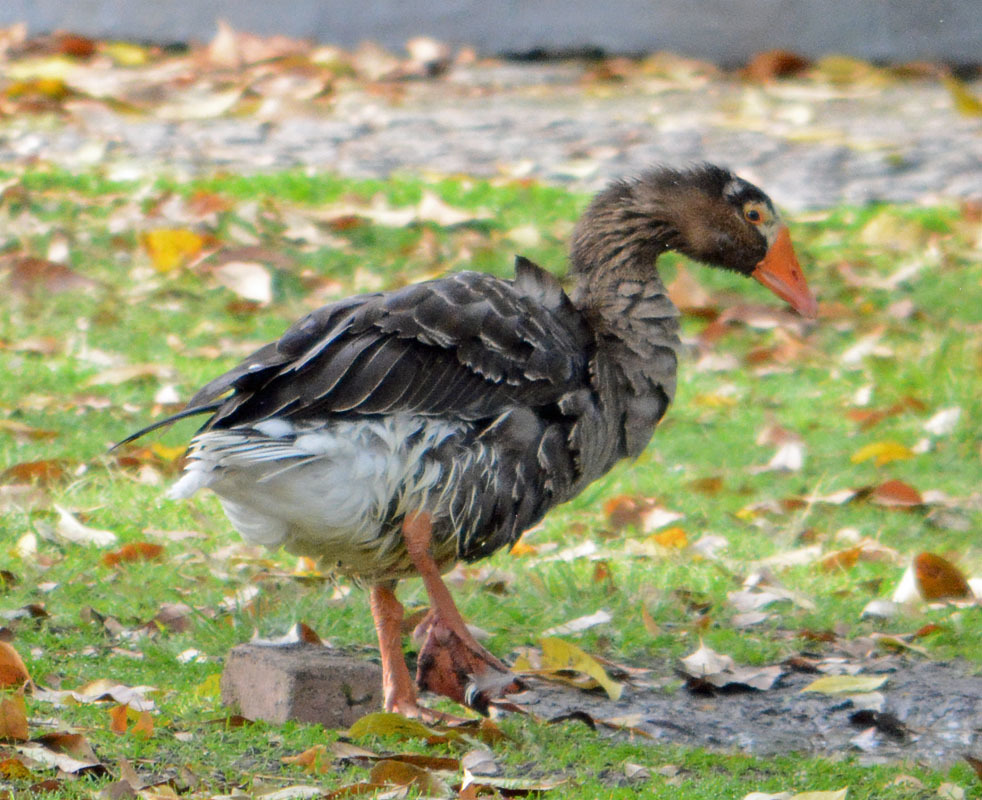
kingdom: Animalia
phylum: Chordata
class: Aves
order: Anseriformes
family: Anatidae
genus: Anser
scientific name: Anser anser
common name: Greylag goose
